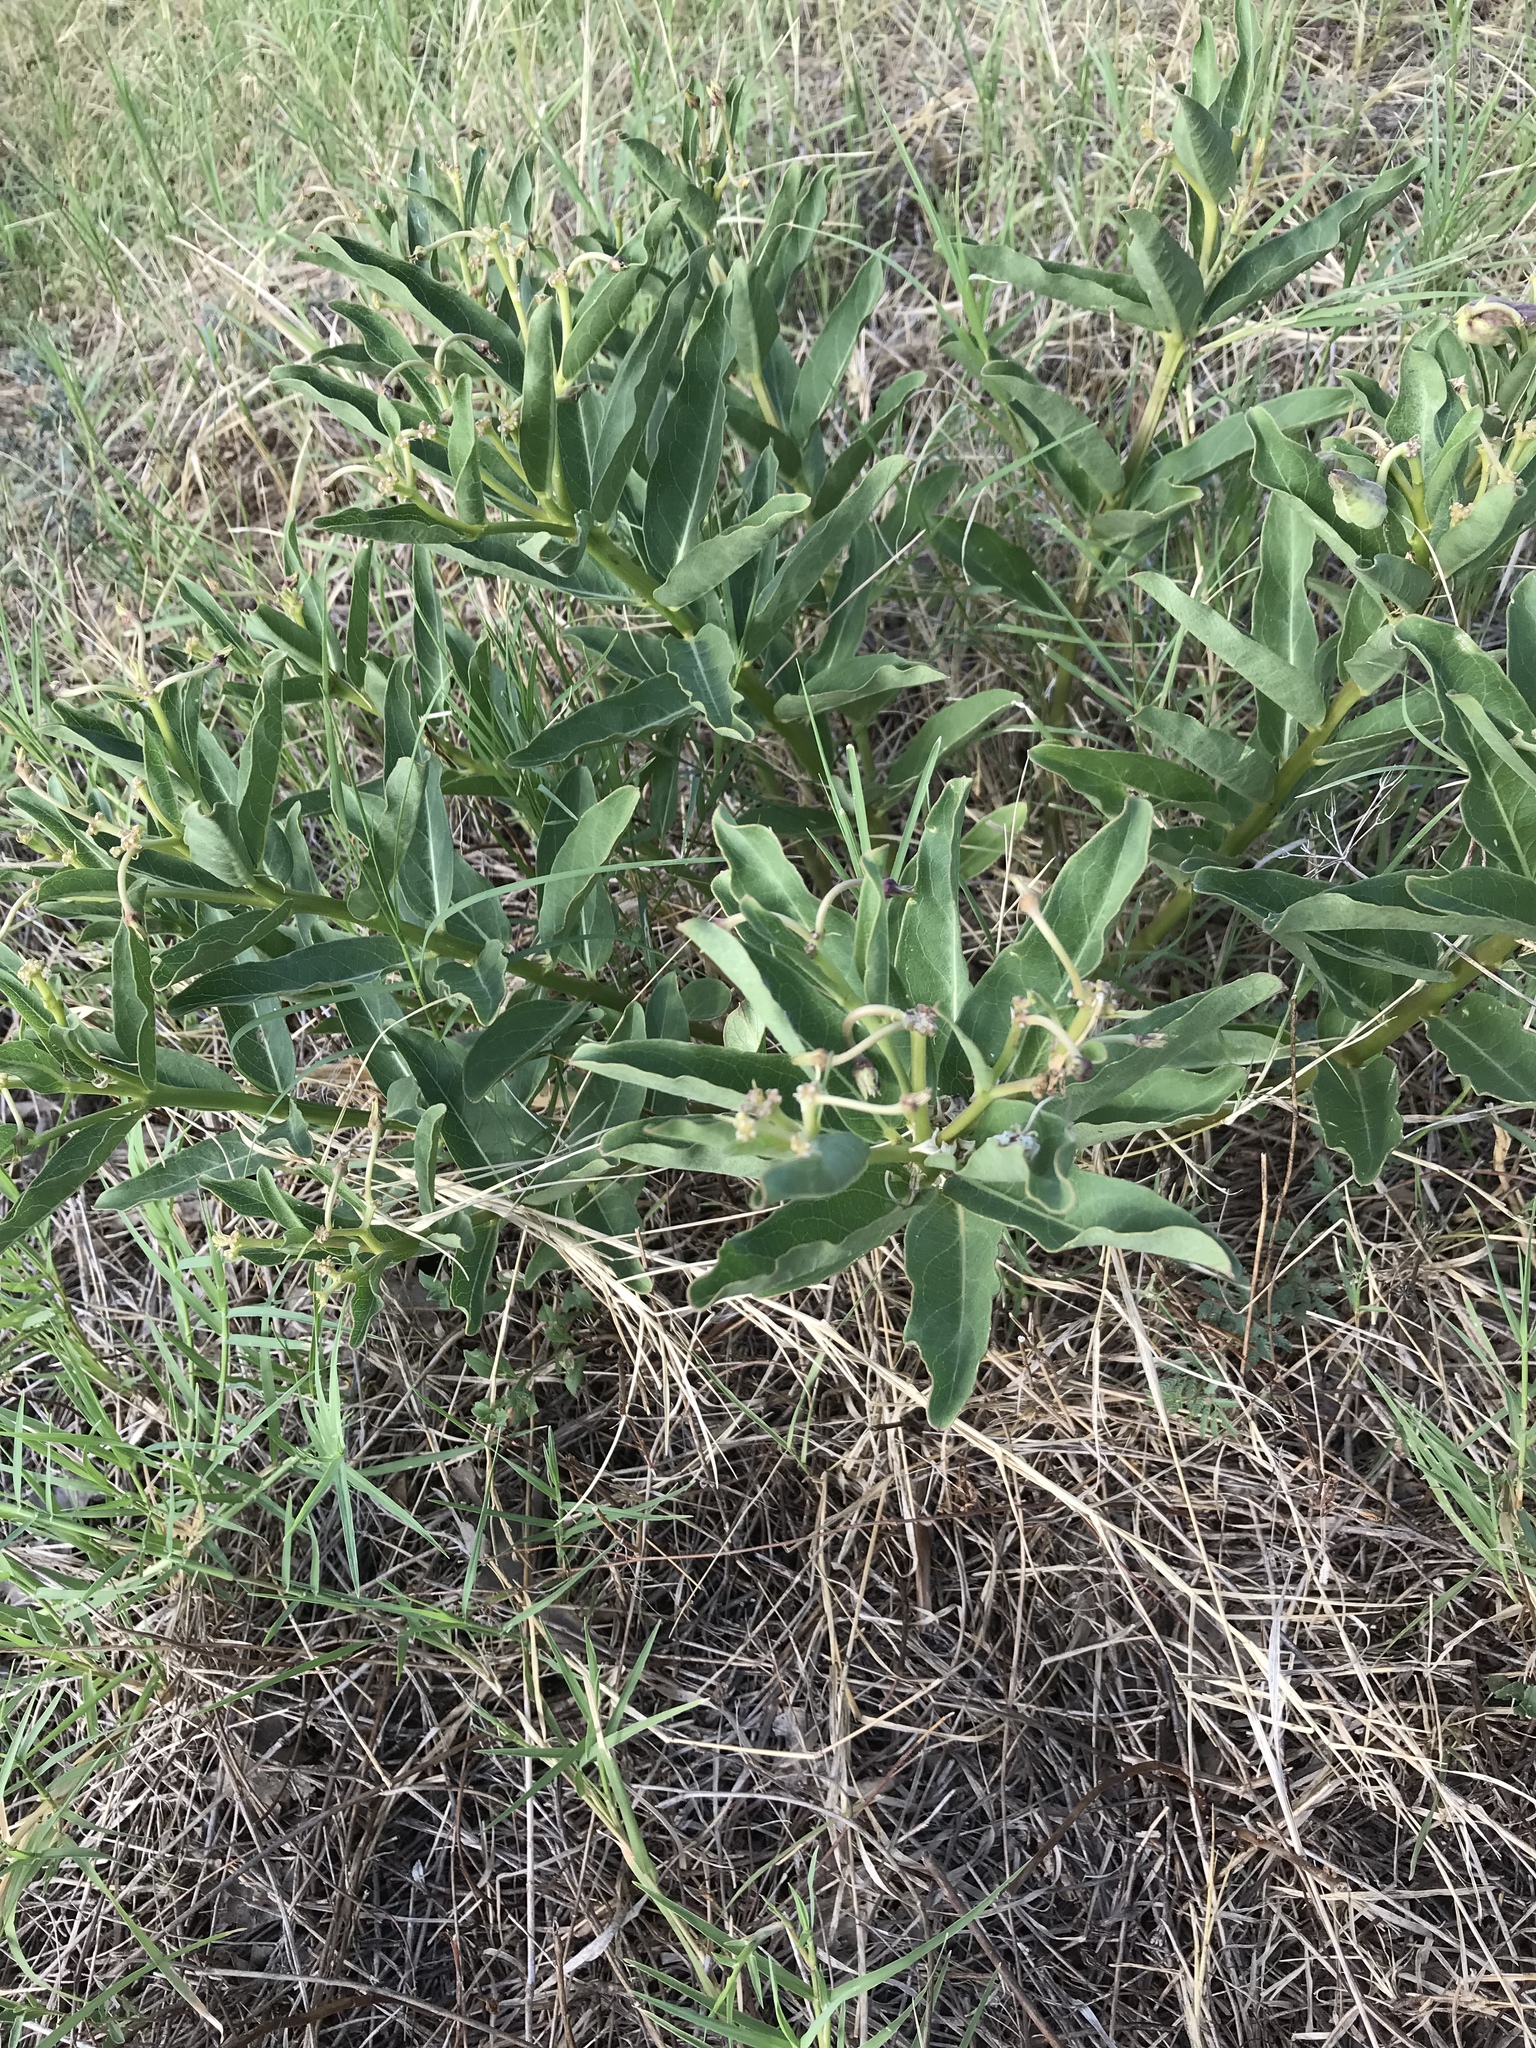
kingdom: Plantae
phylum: Tracheophyta
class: Magnoliopsida
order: Gentianales
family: Apocynaceae
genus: Asclepias
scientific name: Asclepias viridis
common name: Antelope-horns
